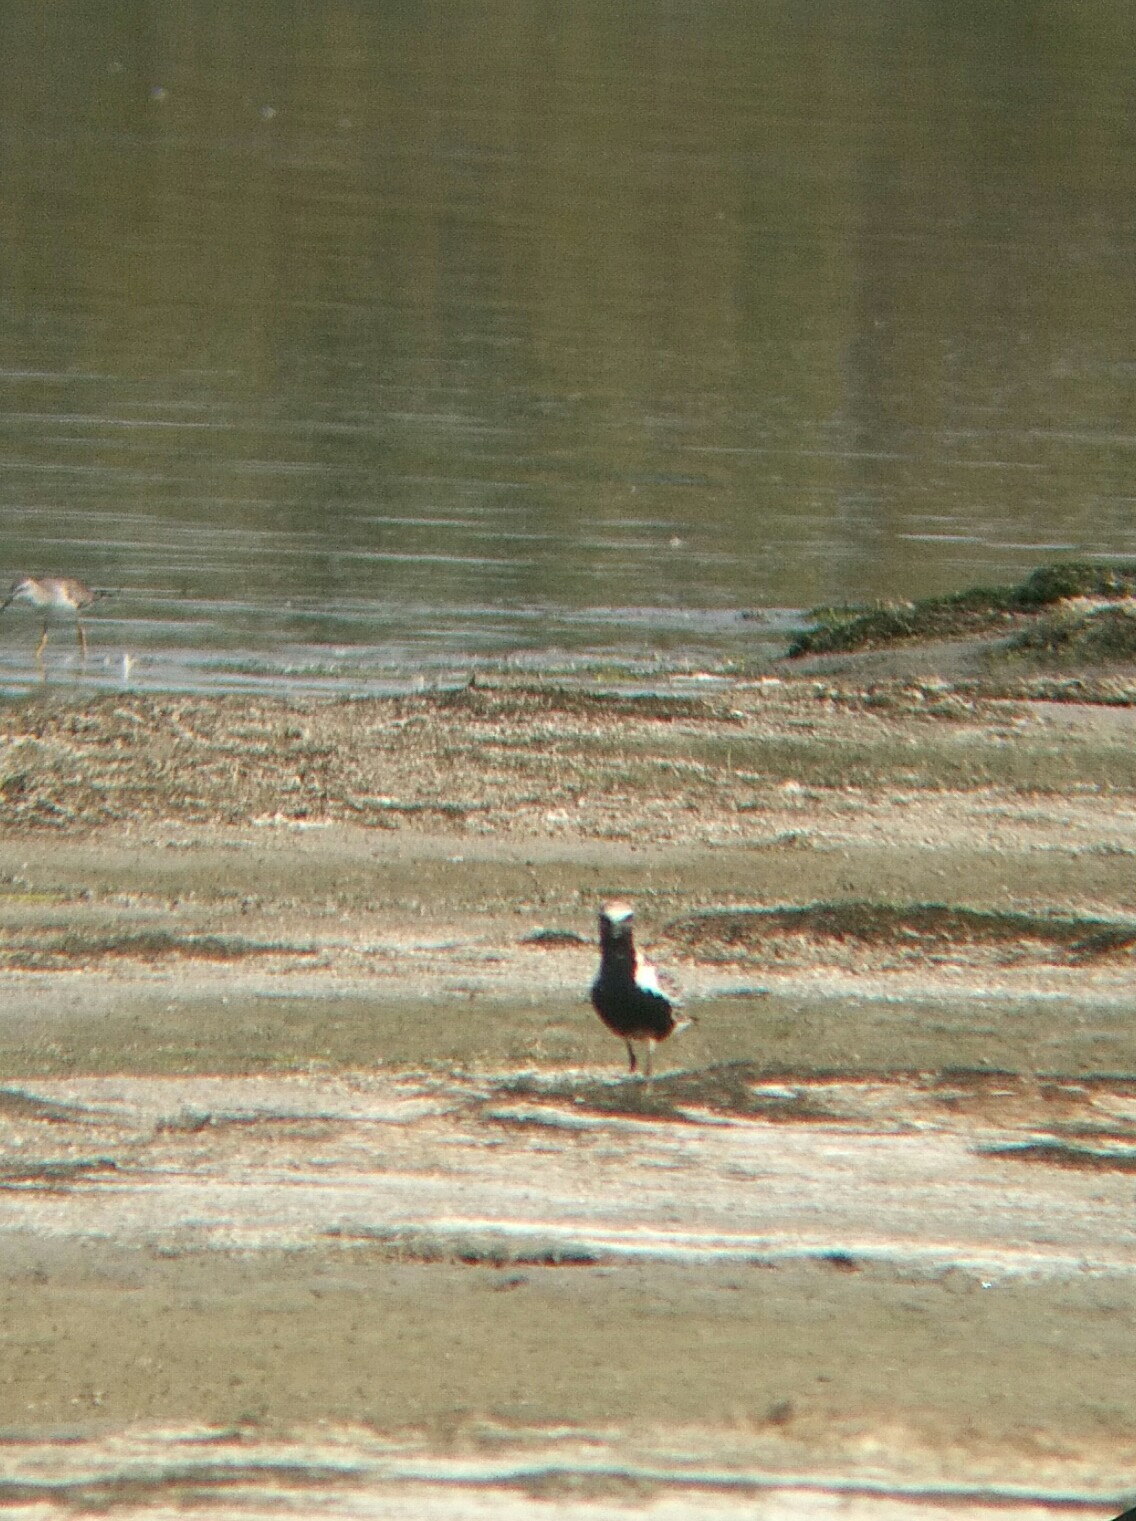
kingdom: Animalia
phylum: Chordata
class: Aves
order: Charadriiformes
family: Charadriidae
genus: Pluvialis
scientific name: Pluvialis squatarola
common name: Grey plover
